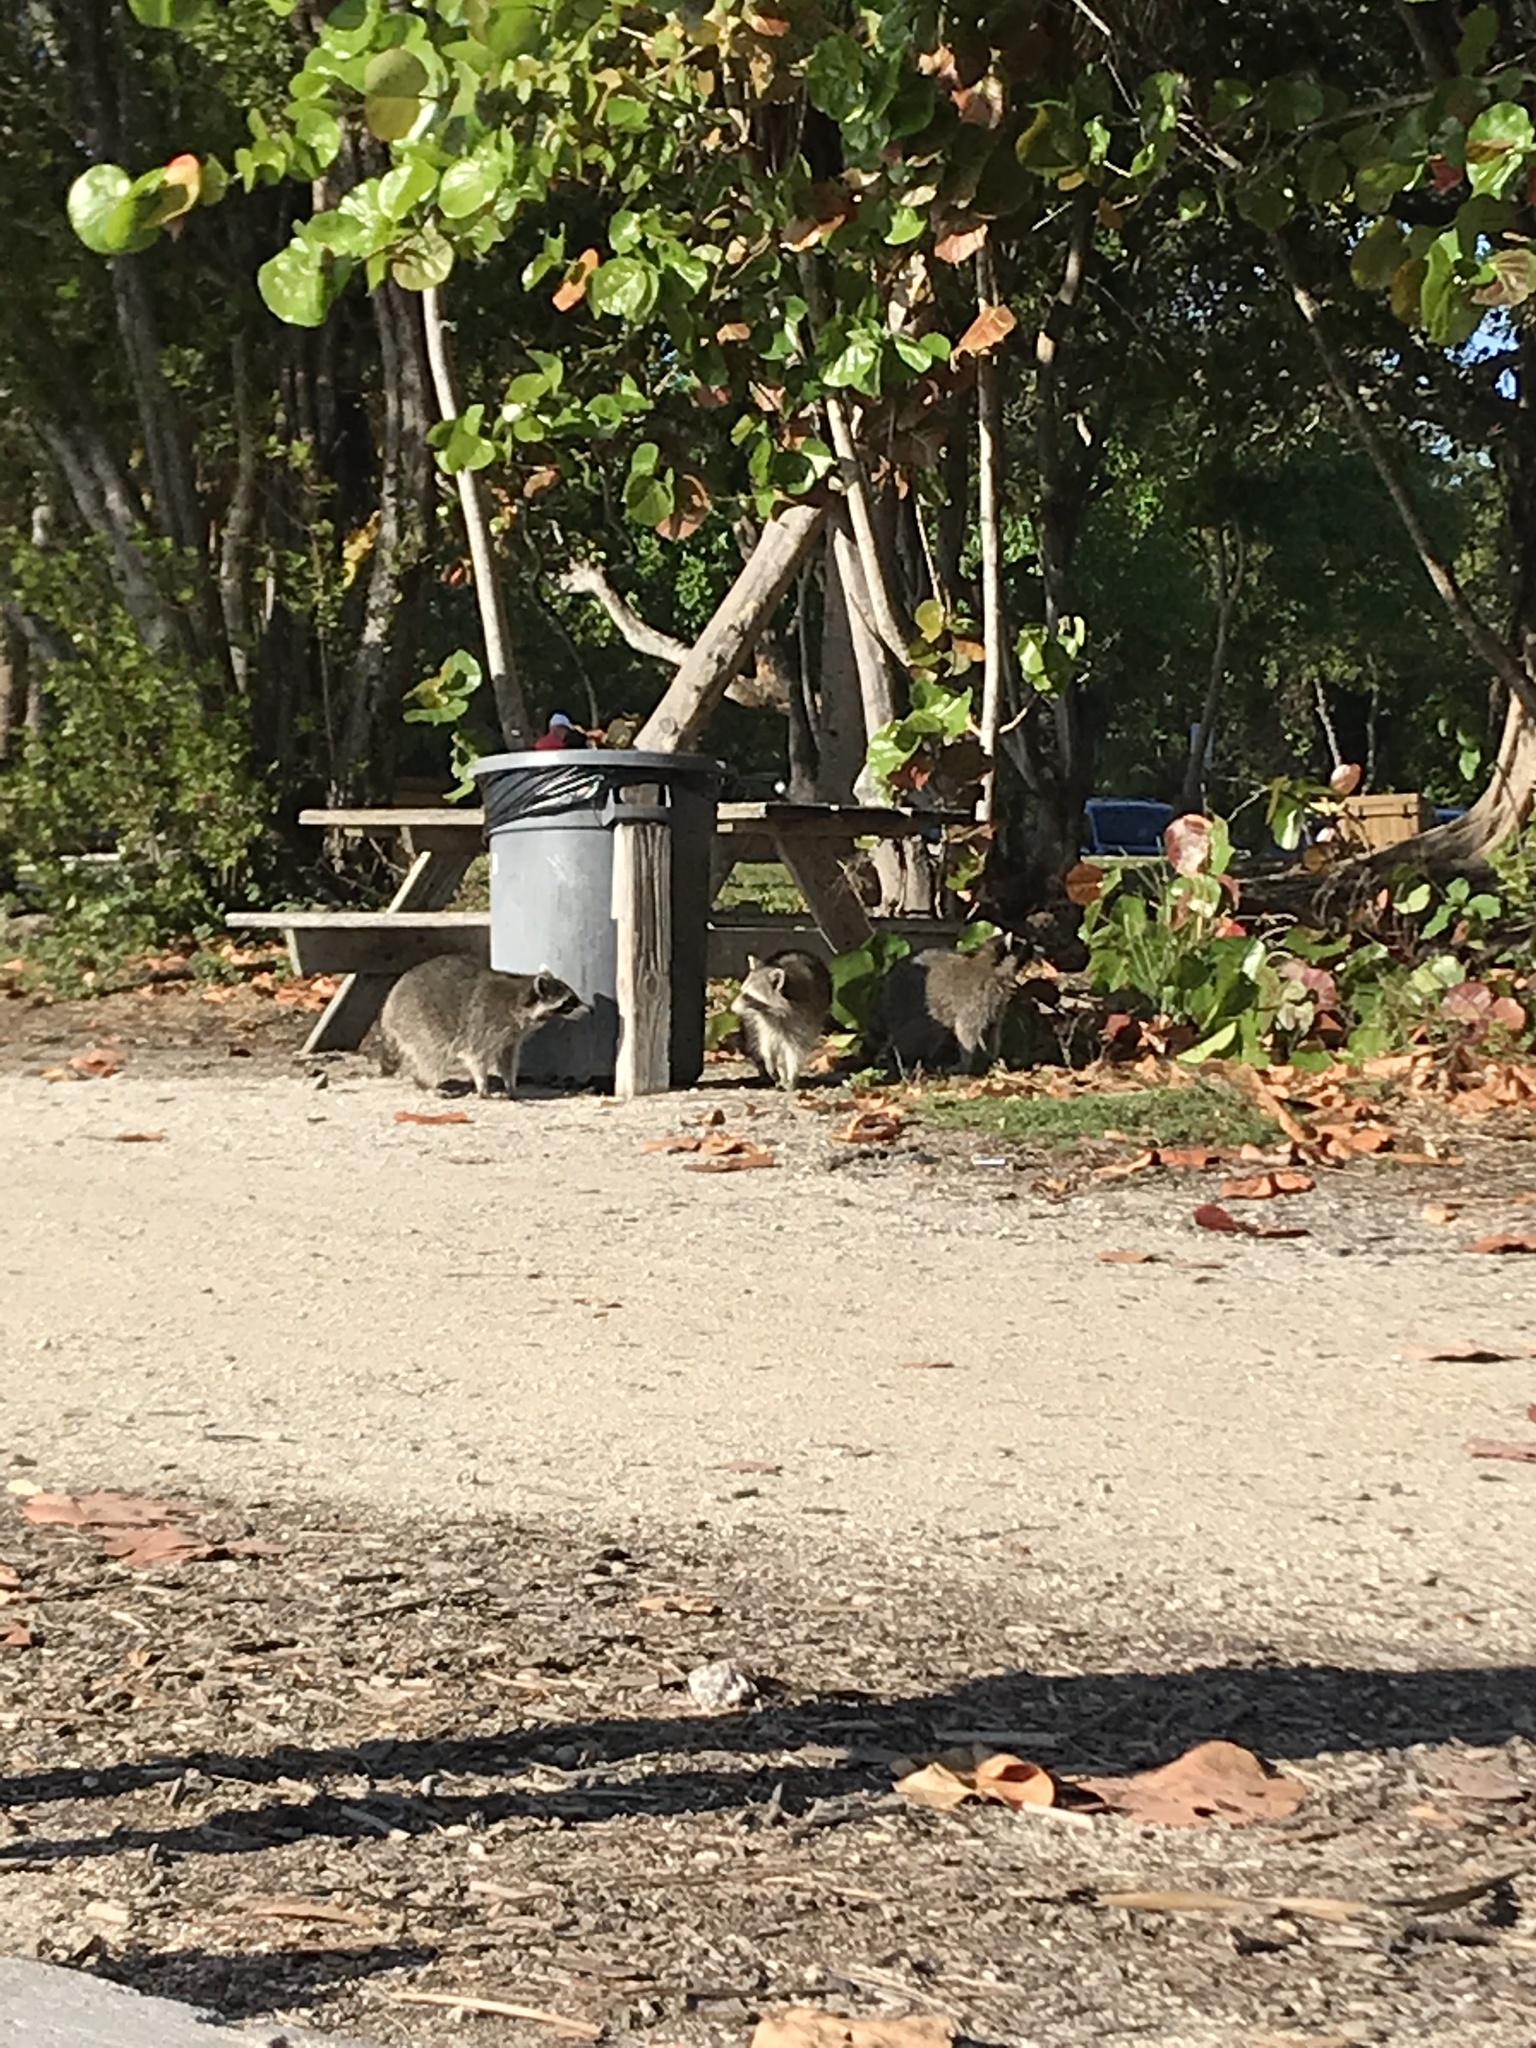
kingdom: Animalia
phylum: Chordata
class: Mammalia
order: Carnivora
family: Procyonidae
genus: Procyon
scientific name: Procyon lotor
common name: Raccoon
